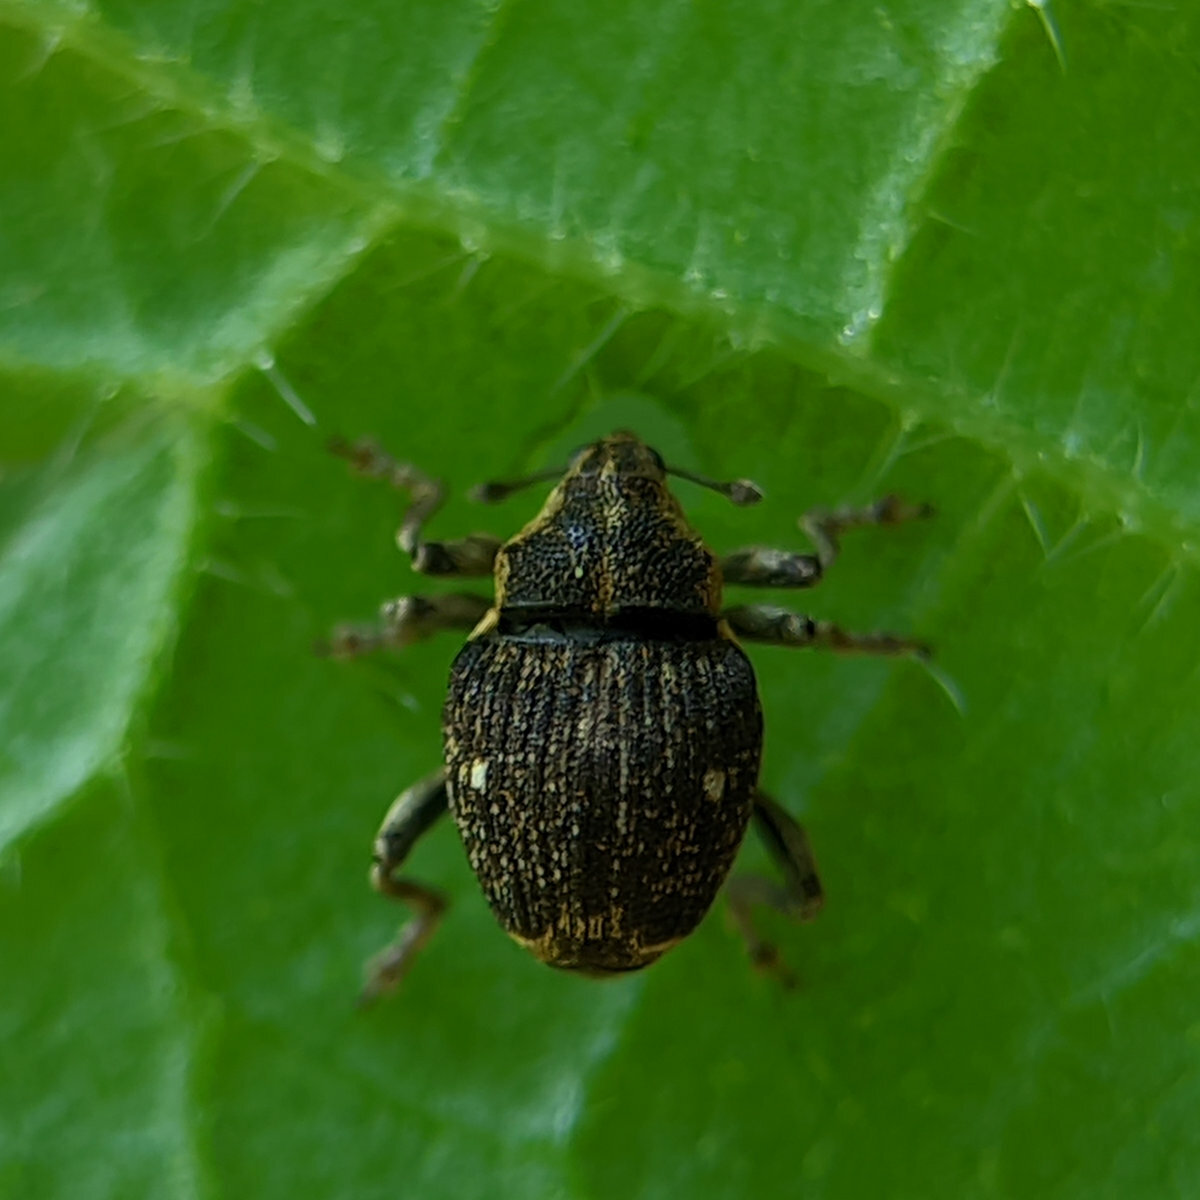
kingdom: Animalia
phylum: Arthropoda
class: Insecta
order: Coleoptera
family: Curculionidae
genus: Nedyus
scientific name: Nedyus quadrimaculatus
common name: Small nettle weevil
